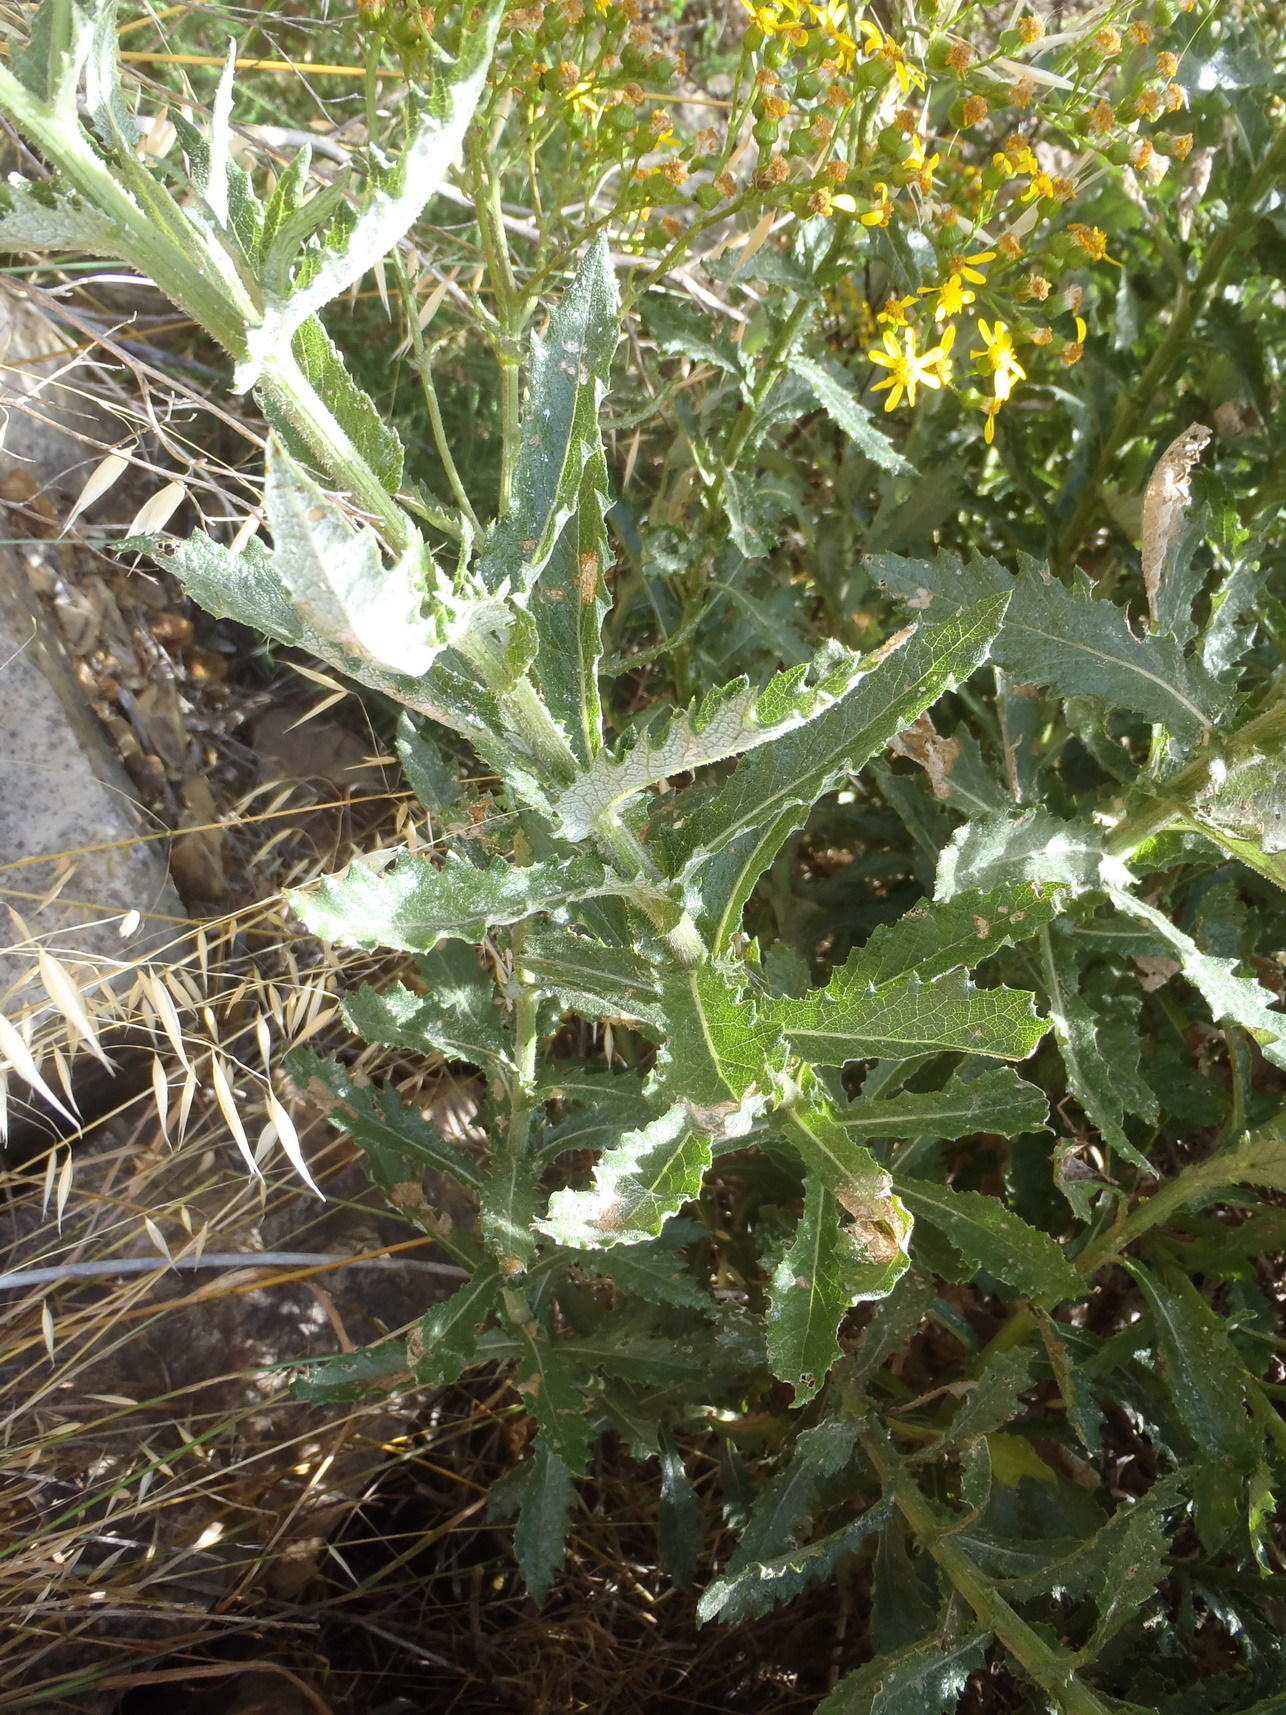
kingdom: Plantae
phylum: Tracheophyta
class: Magnoliopsida
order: Asterales
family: Asteraceae
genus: Senecio
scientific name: Senecio pterophorus
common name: Shoddy ragwort
